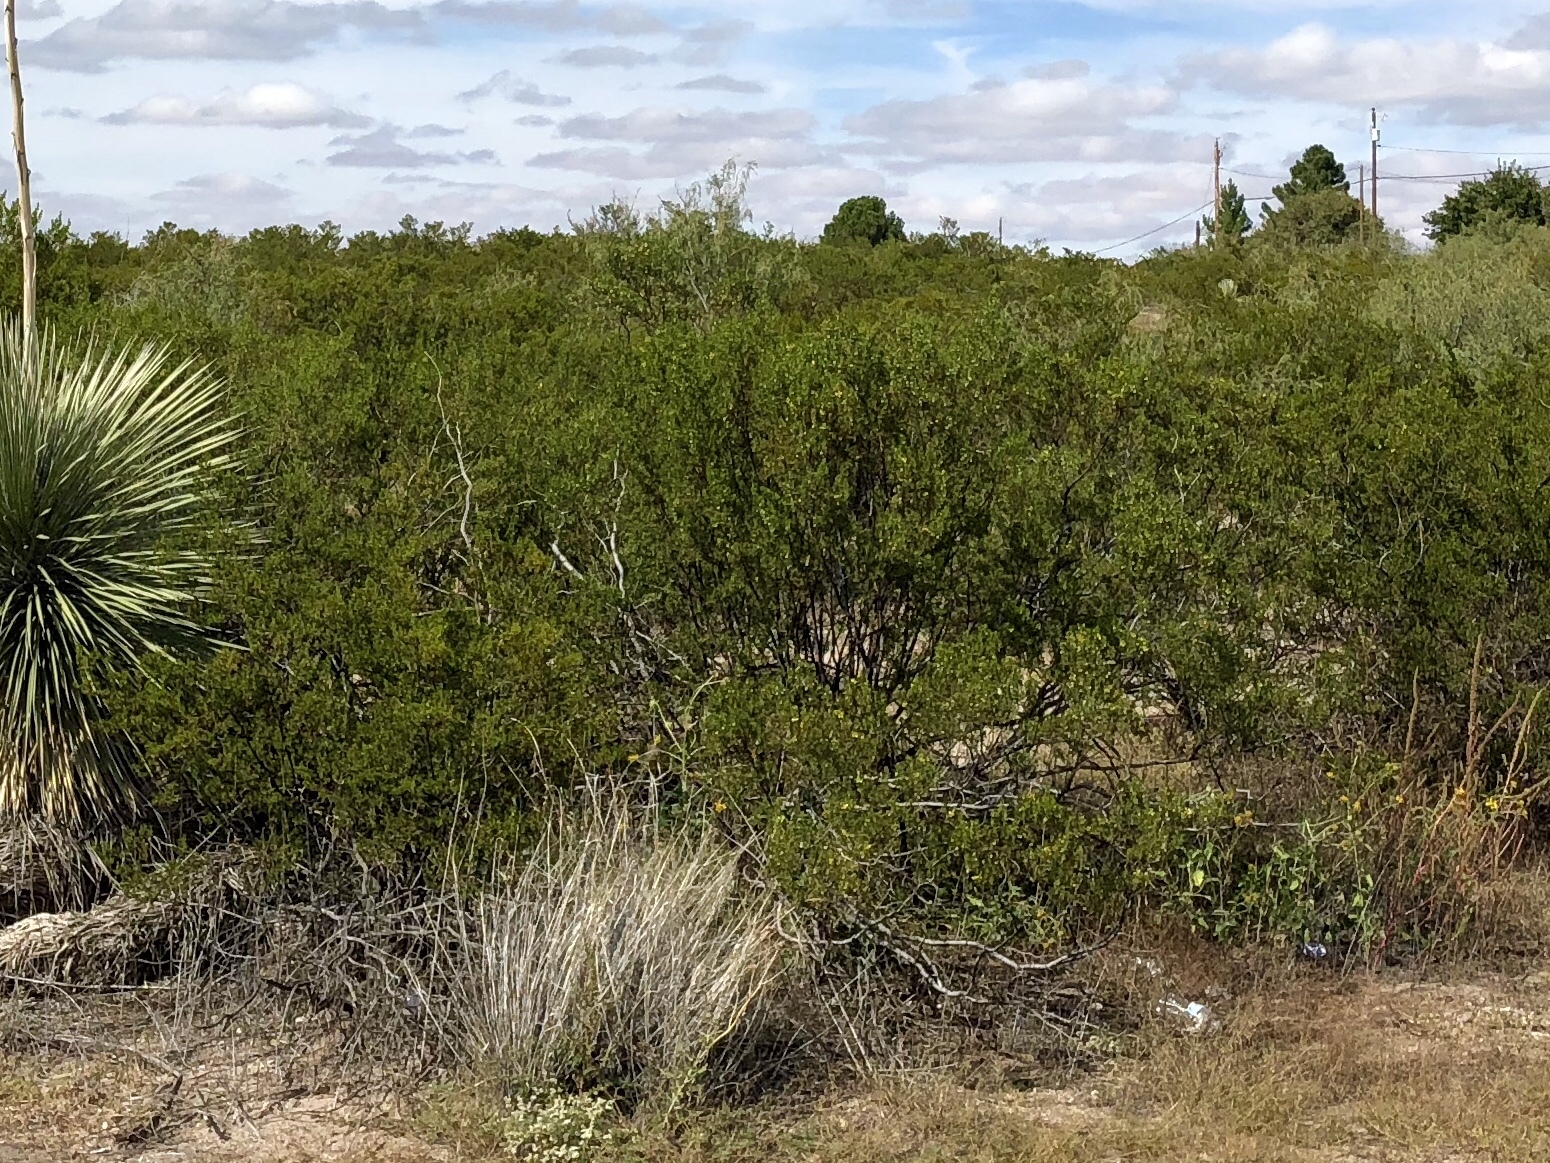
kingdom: Plantae
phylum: Tracheophyta
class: Magnoliopsida
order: Zygophyllales
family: Zygophyllaceae
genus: Larrea
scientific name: Larrea tridentata
